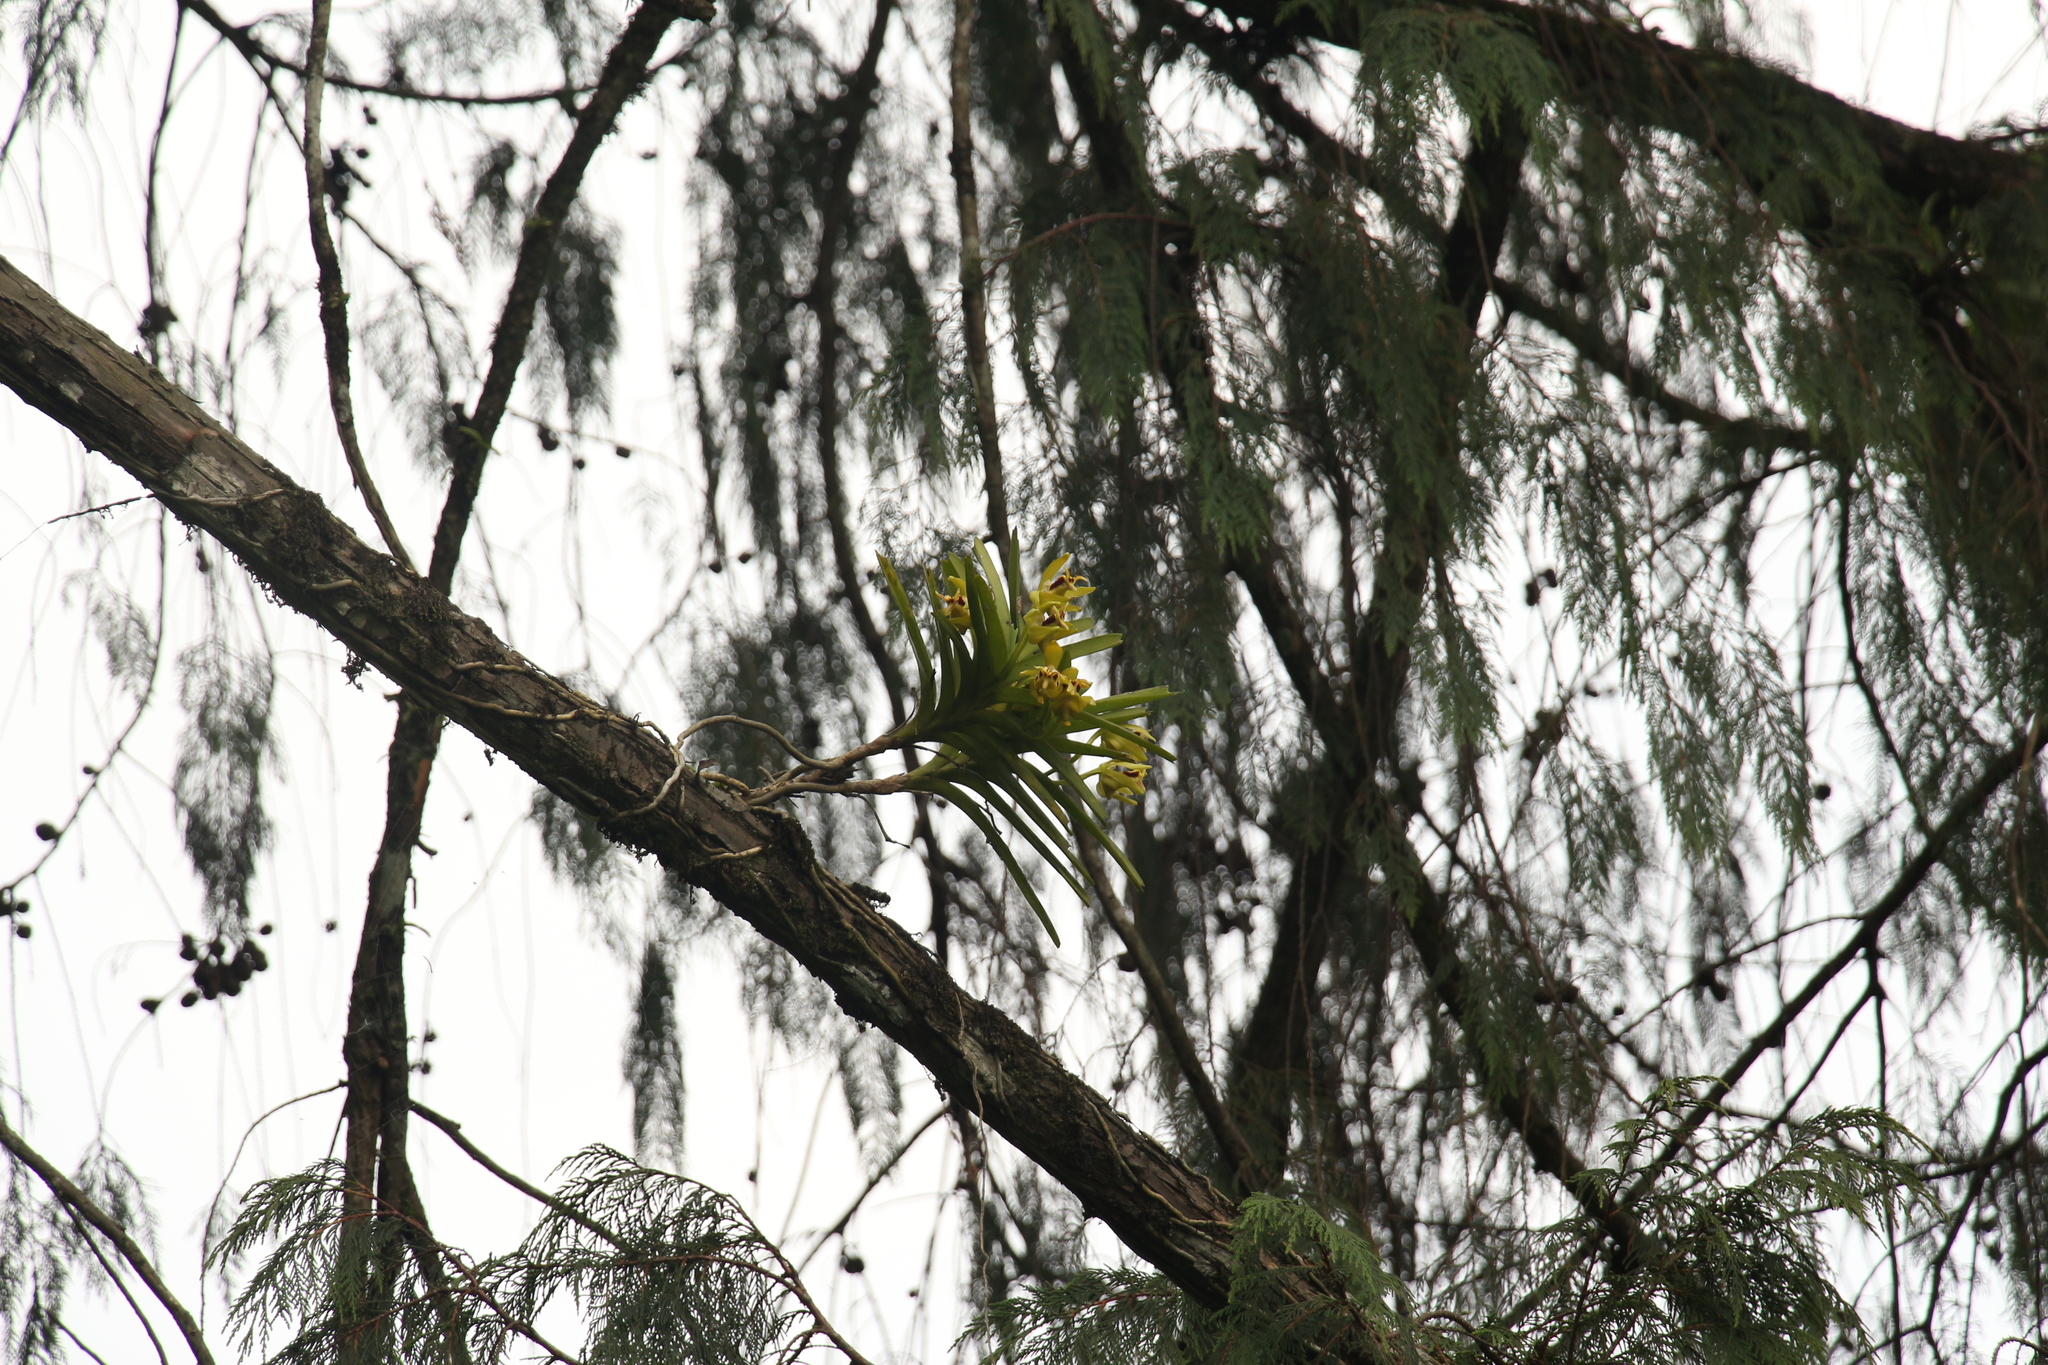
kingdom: Plantae
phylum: Tracheophyta
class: Liliopsida
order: Asparagales
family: Orchidaceae
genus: Vanda
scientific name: Vanda cristata
